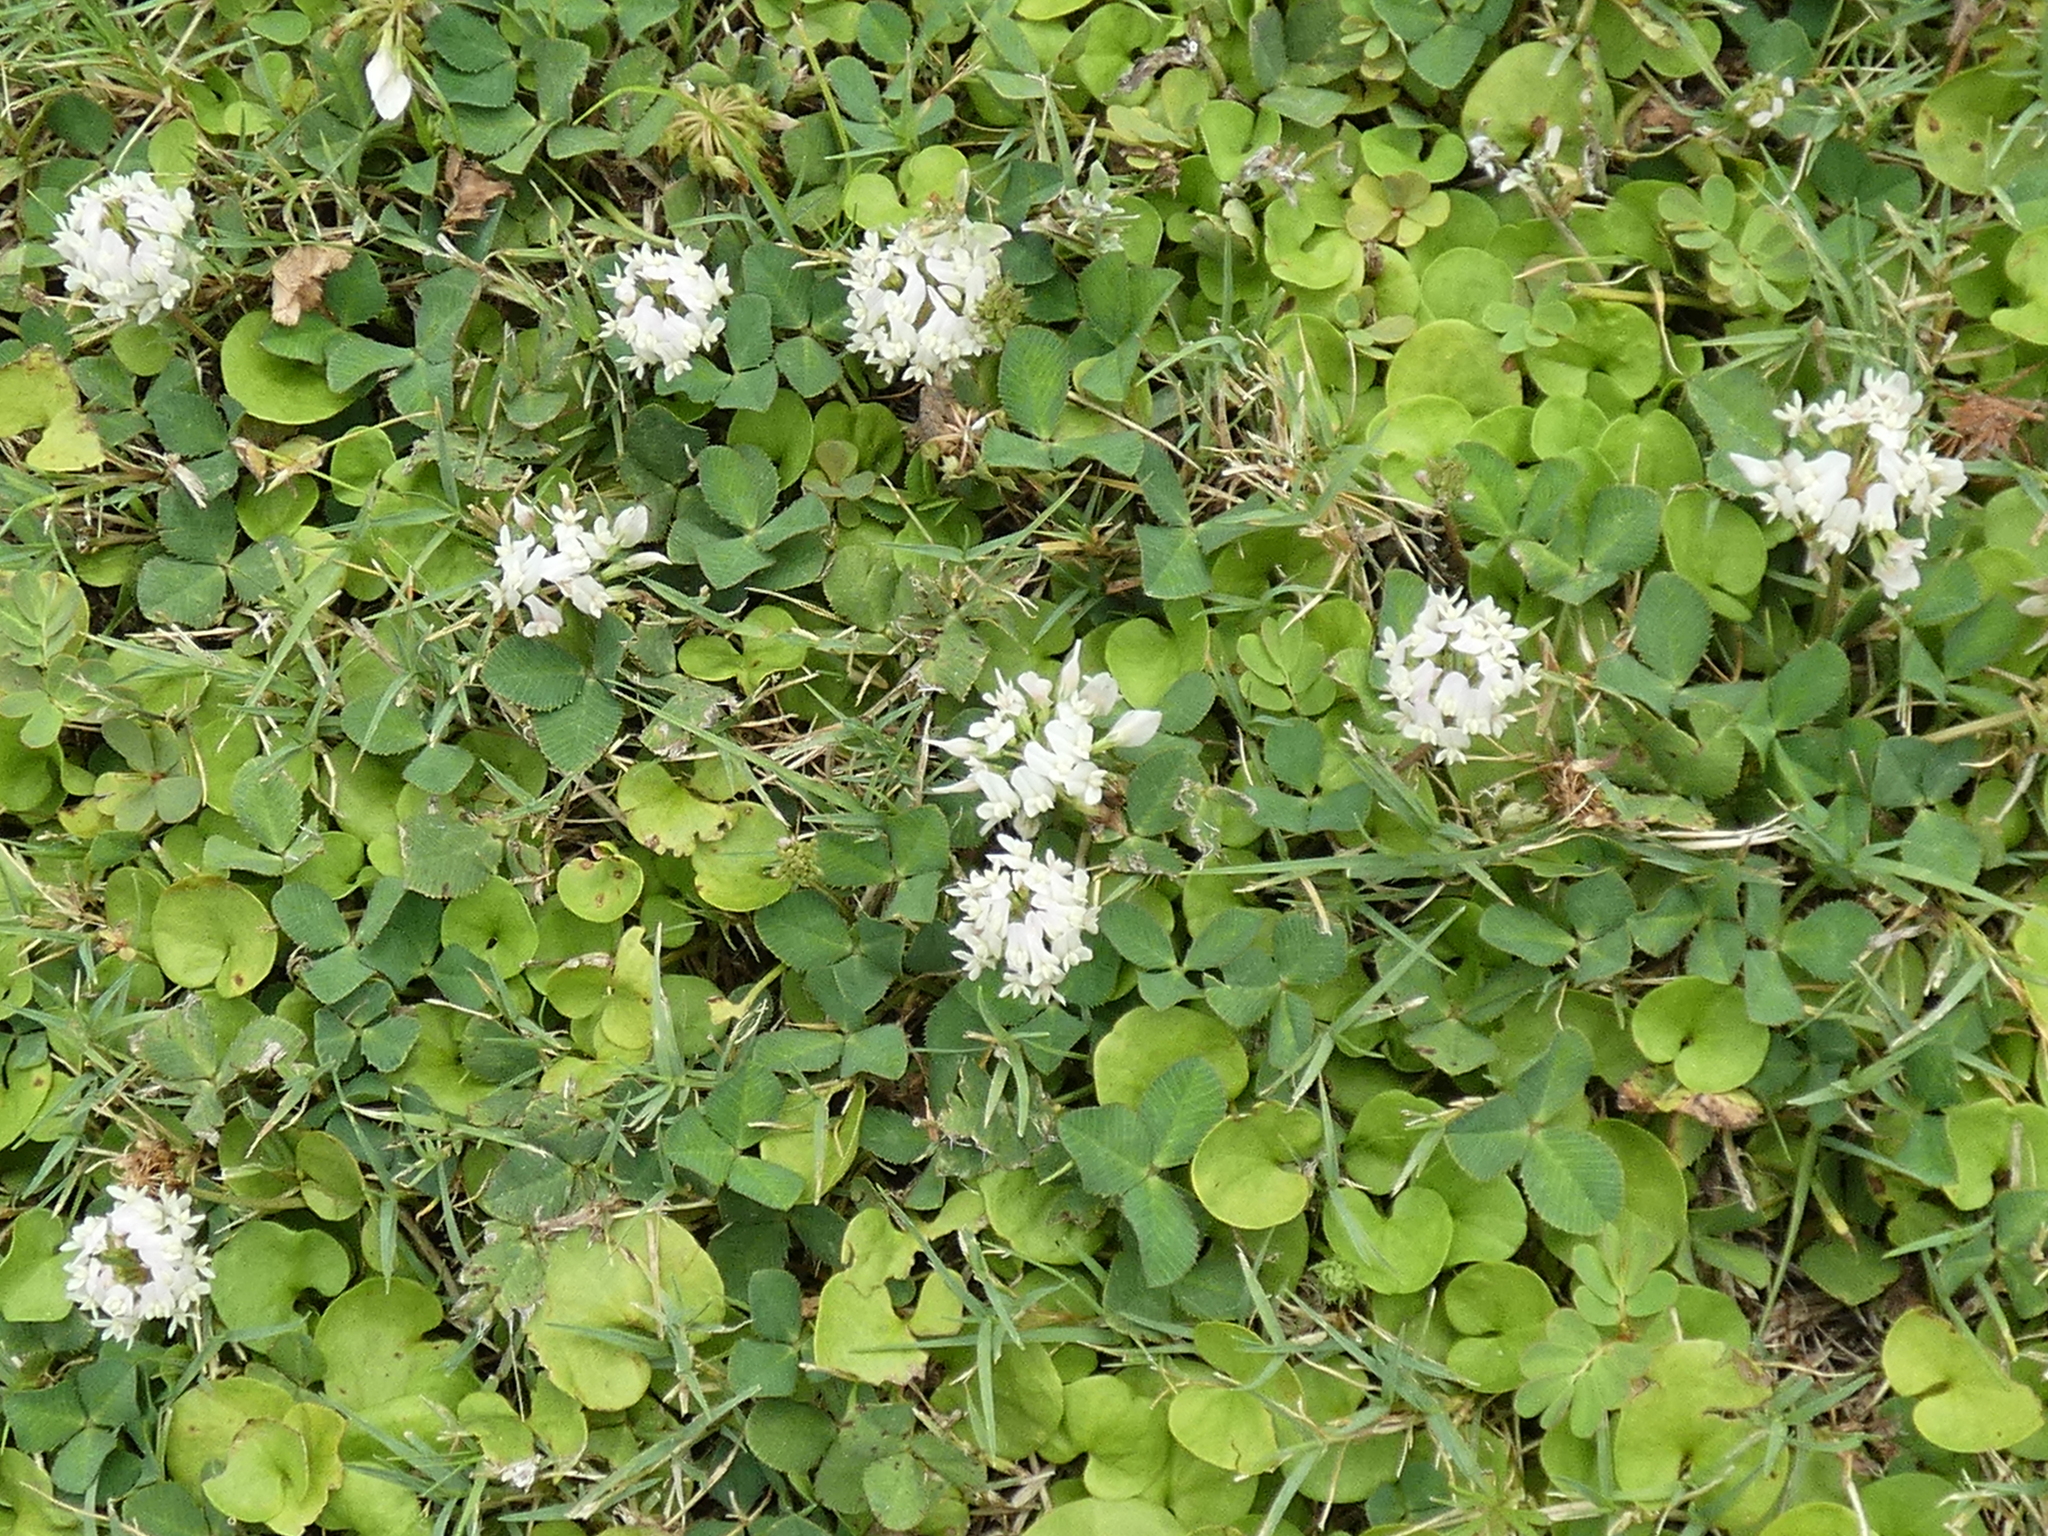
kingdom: Plantae
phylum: Tracheophyta
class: Magnoliopsida
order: Fabales
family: Fabaceae
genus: Trifolium
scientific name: Trifolium repens
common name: White clover
